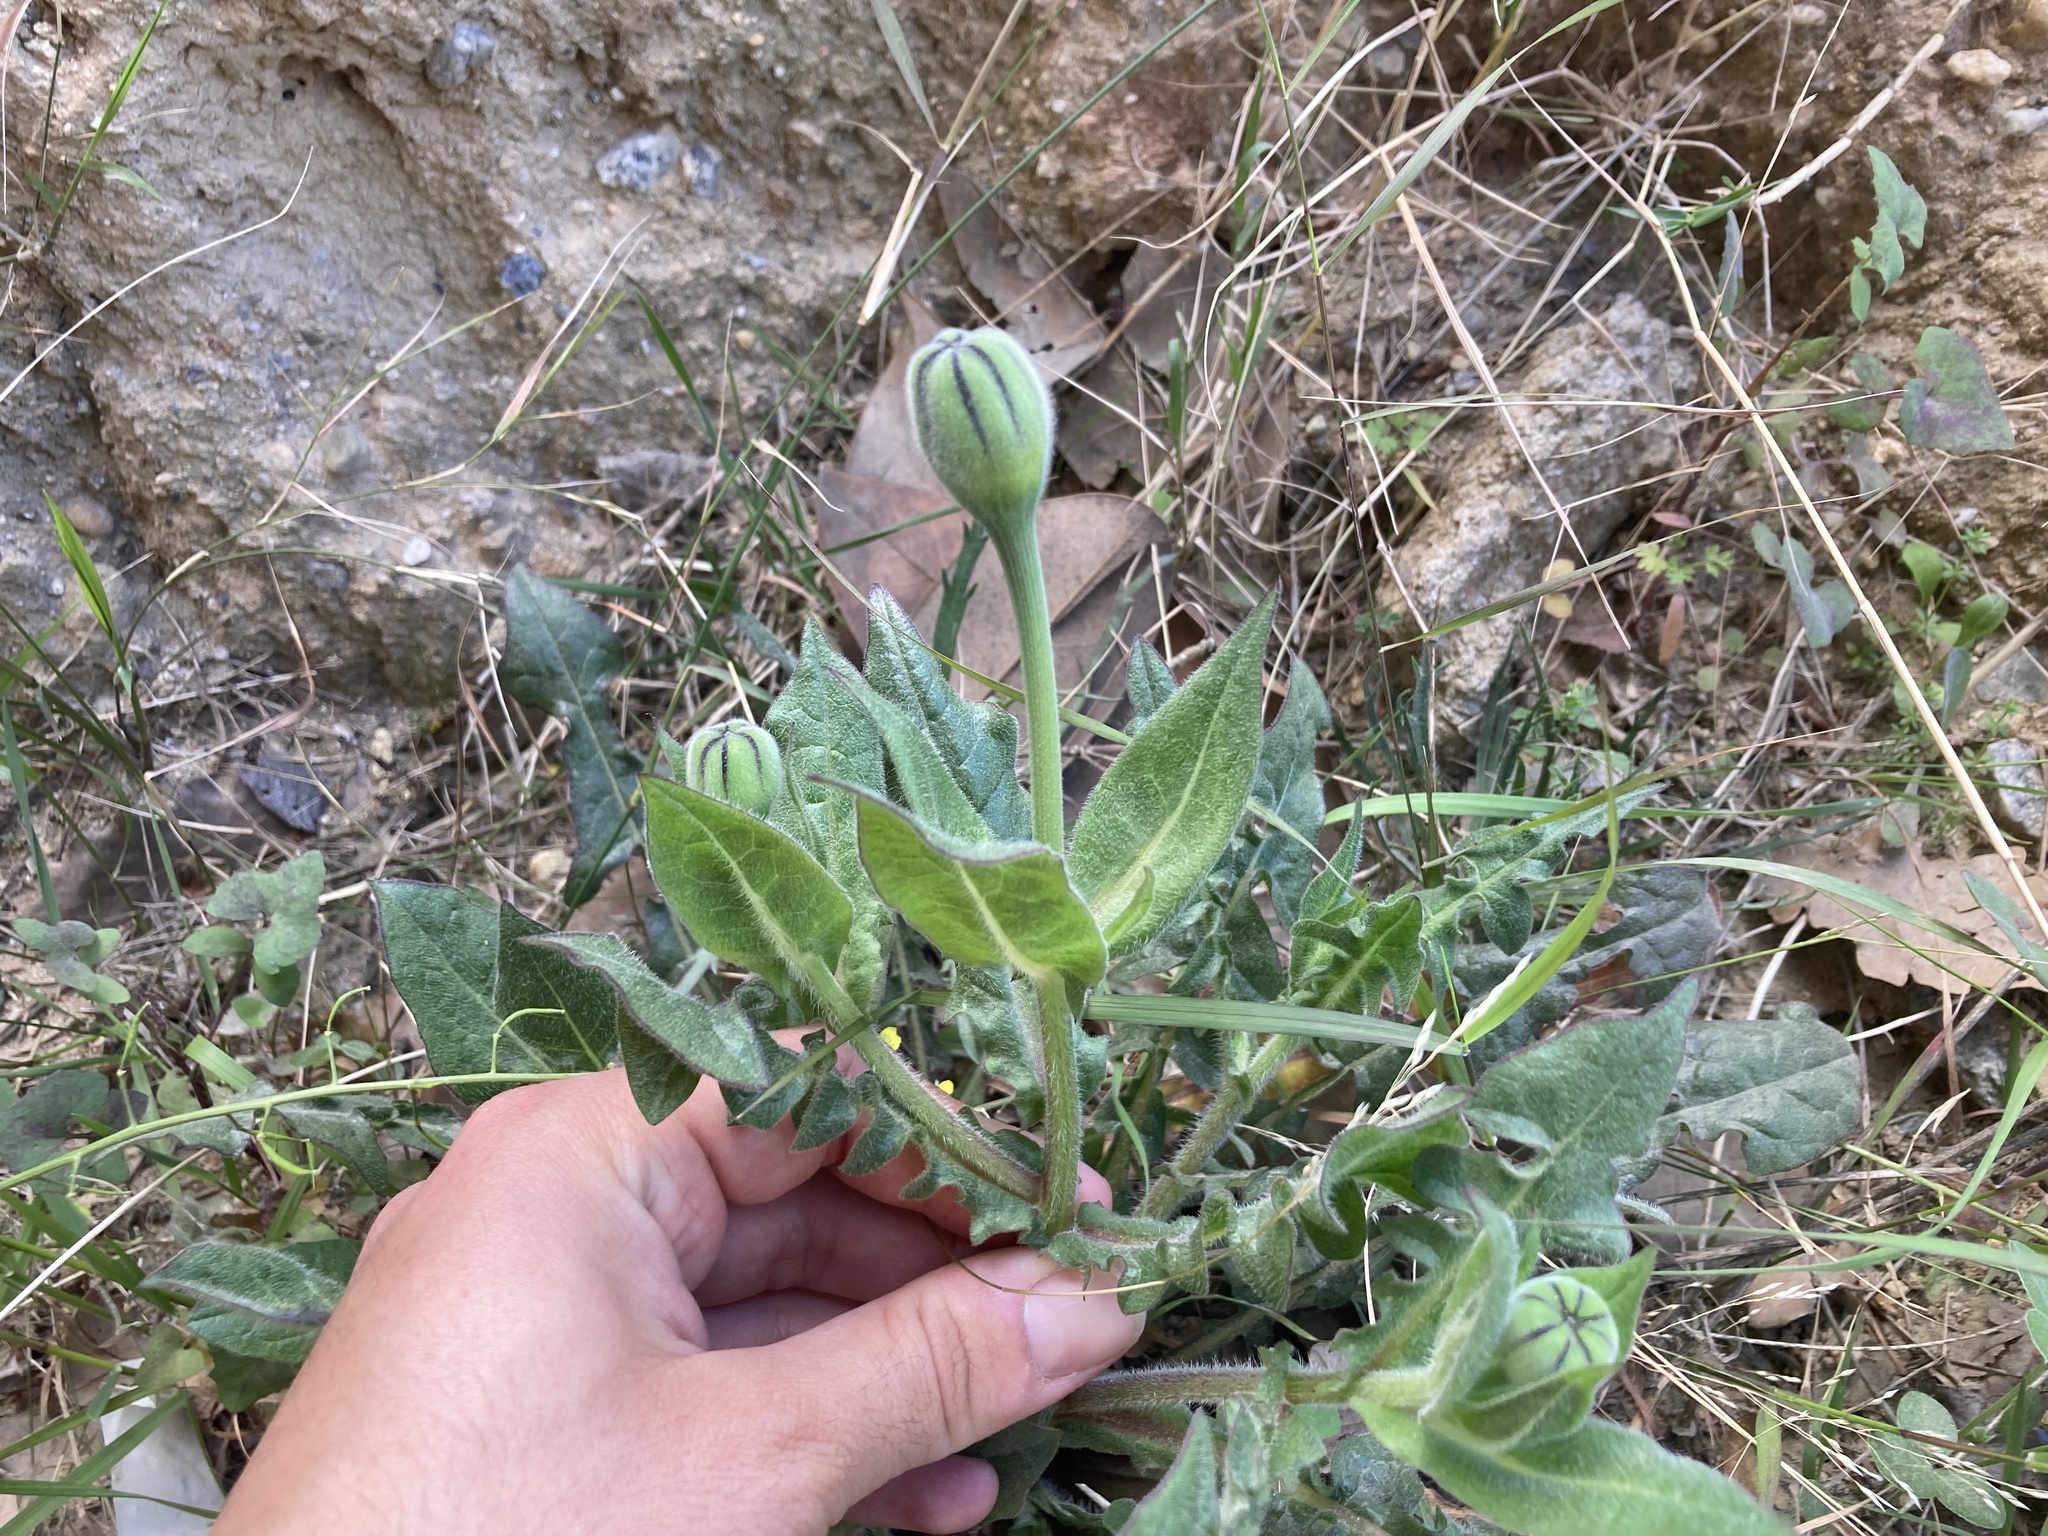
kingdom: Plantae
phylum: Tracheophyta
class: Magnoliopsida
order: Asterales
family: Asteraceae
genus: Urospermum
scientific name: Urospermum dalechampii
